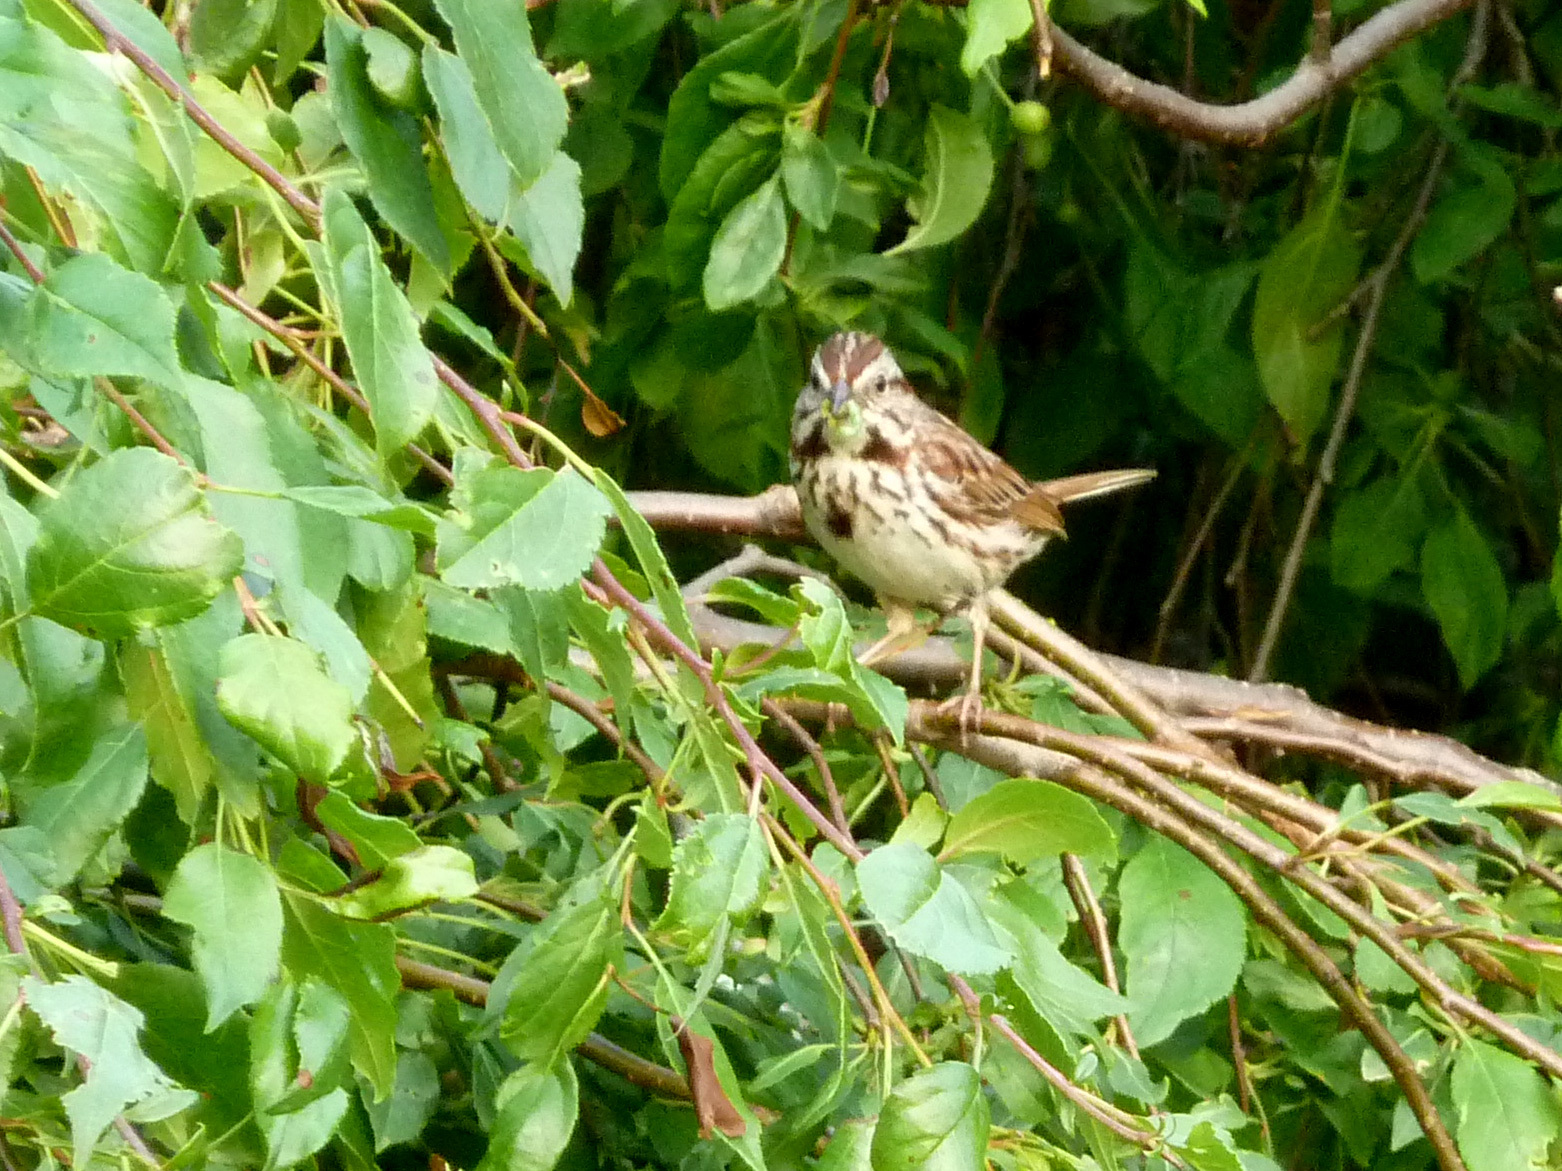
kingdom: Animalia
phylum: Chordata
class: Aves
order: Passeriformes
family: Passerellidae
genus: Melospiza
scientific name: Melospiza melodia
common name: Song sparrow
